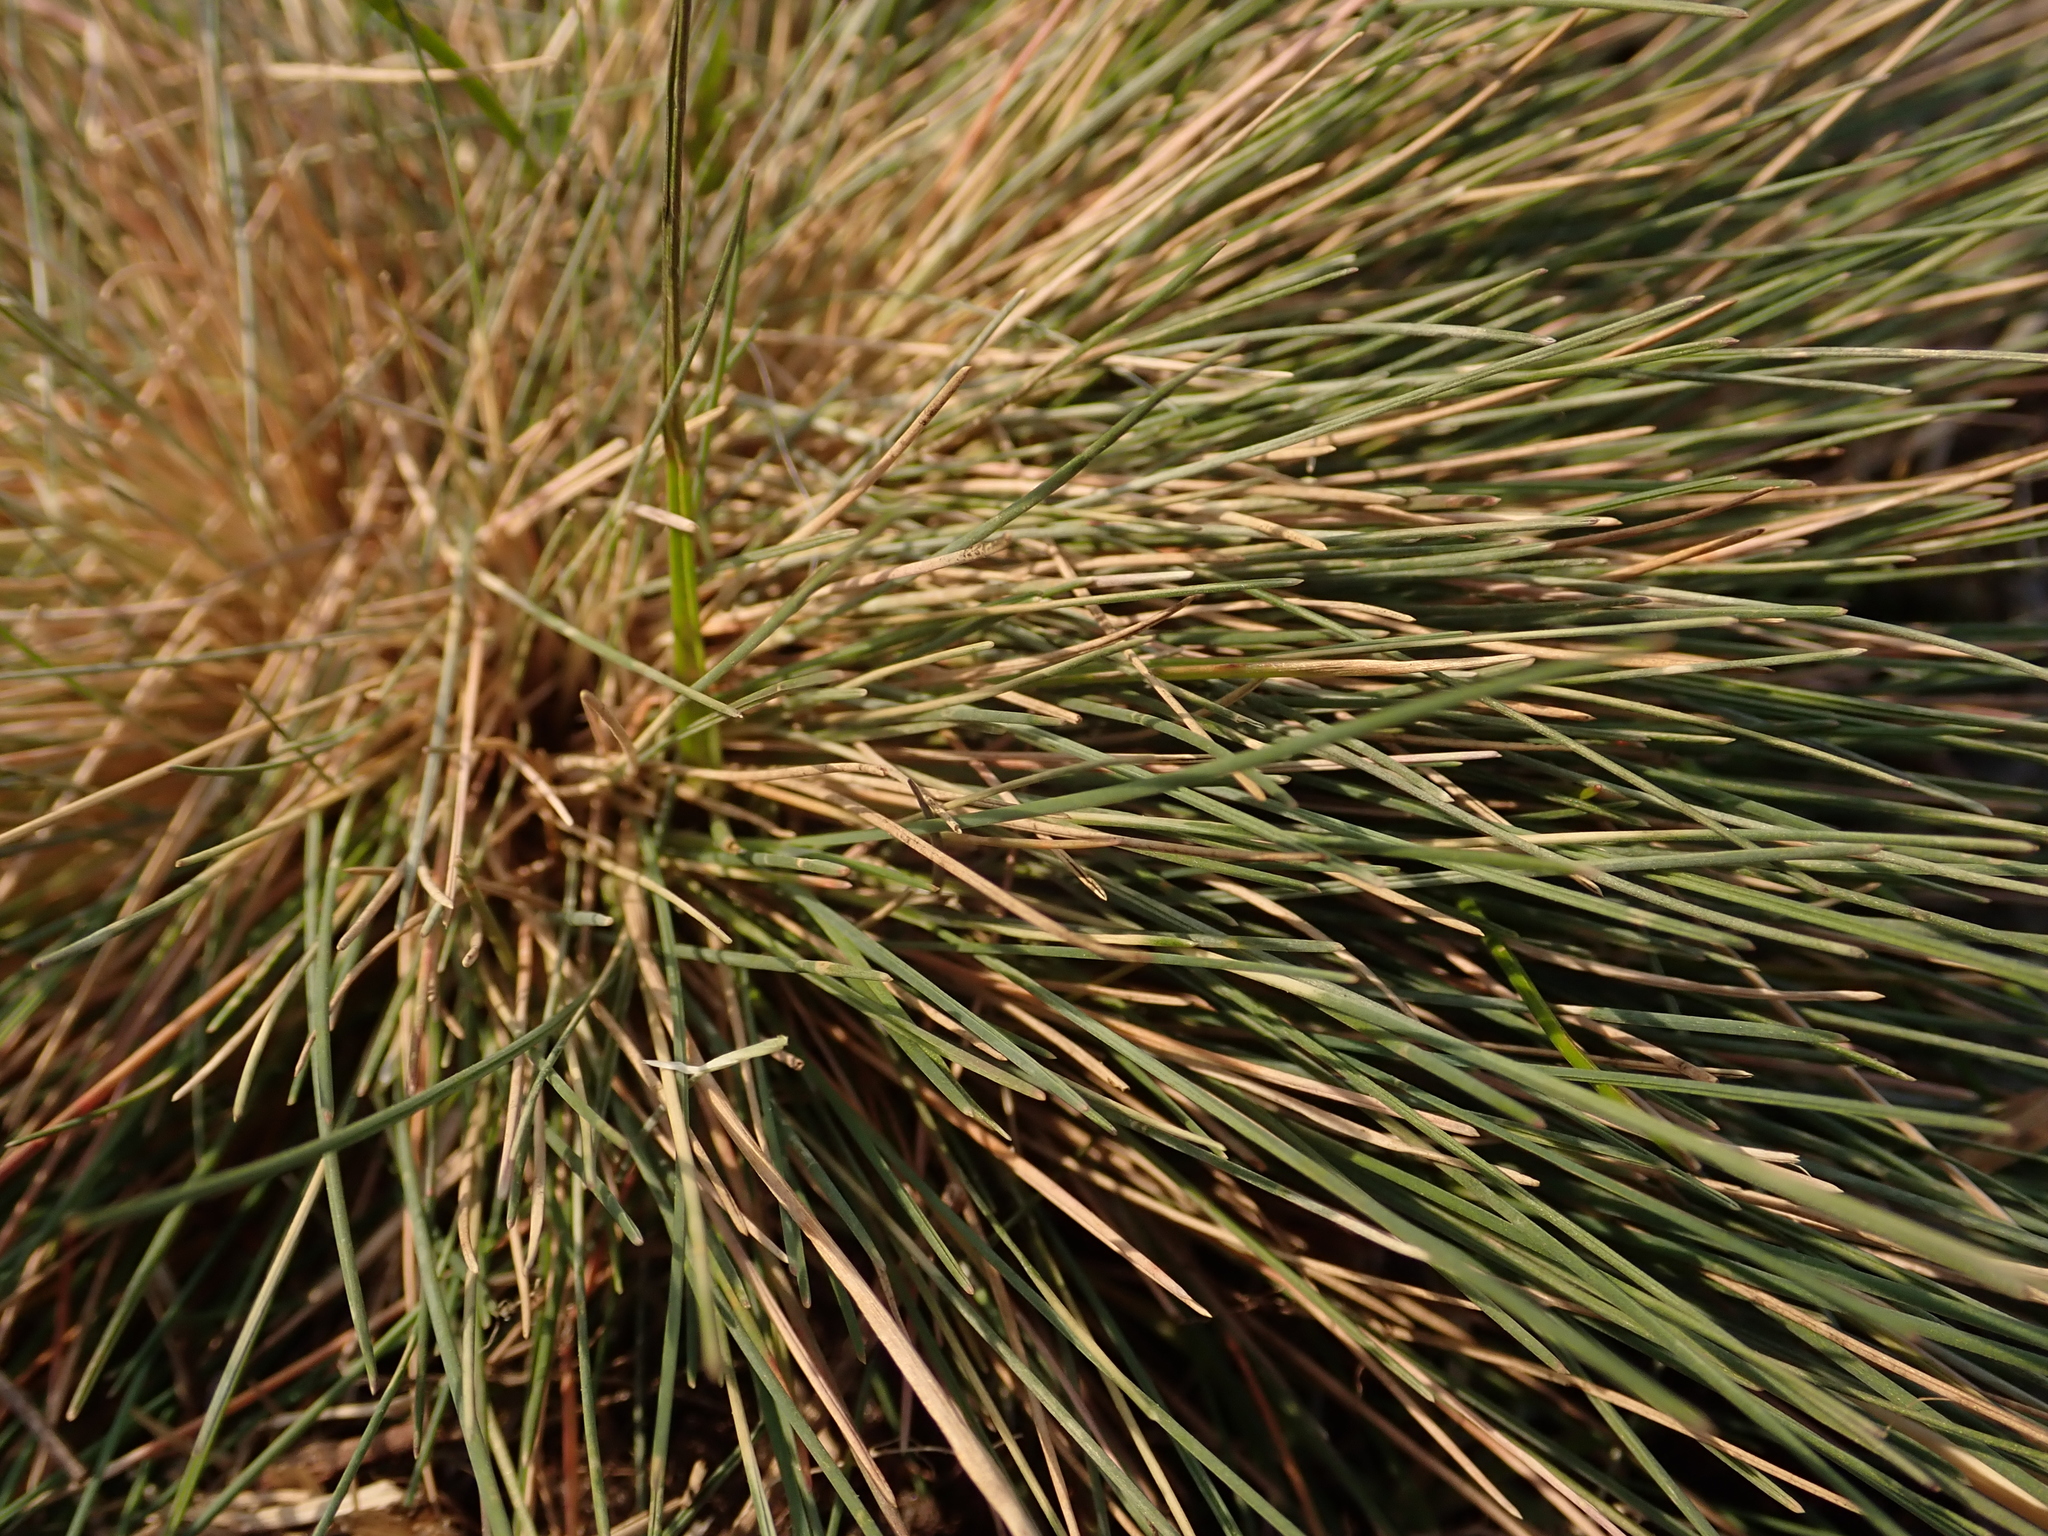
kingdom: Plantae
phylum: Tracheophyta
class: Liliopsida
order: Poales
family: Poaceae
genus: Corynephorus
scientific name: Corynephorus canescens
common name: Grey hair-grass
